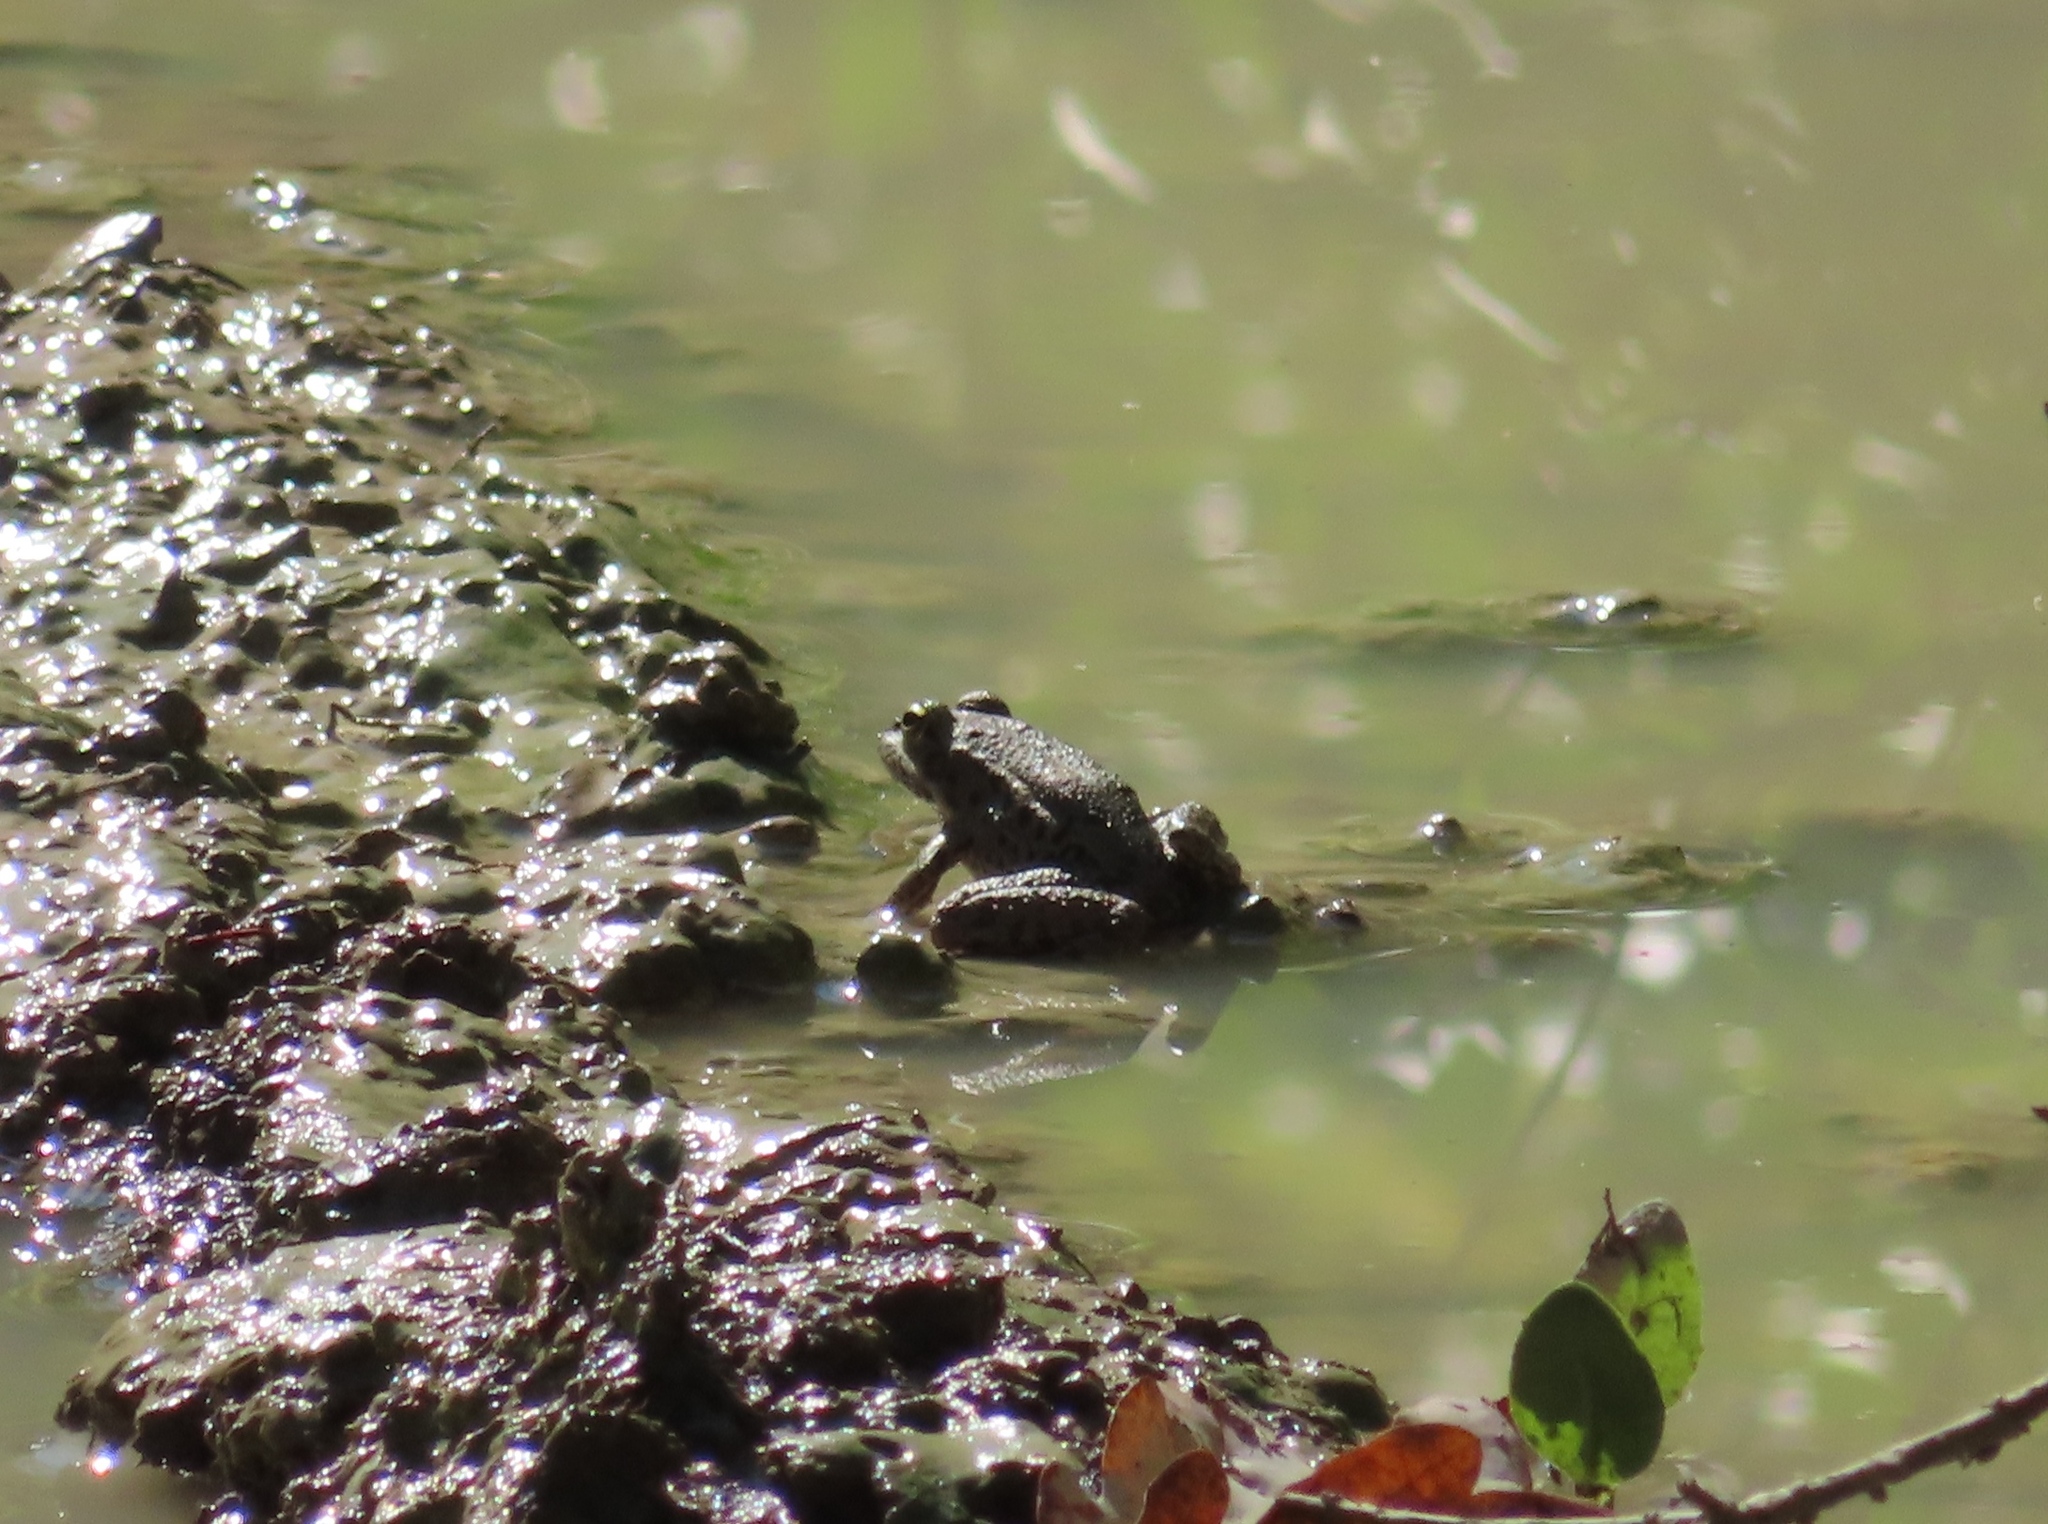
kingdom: Animalia
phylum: Chordata
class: Amphibia
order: Anura
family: Ranidae
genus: Pelophylax
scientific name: Pelophylax ridibundus
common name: Marsh frog
